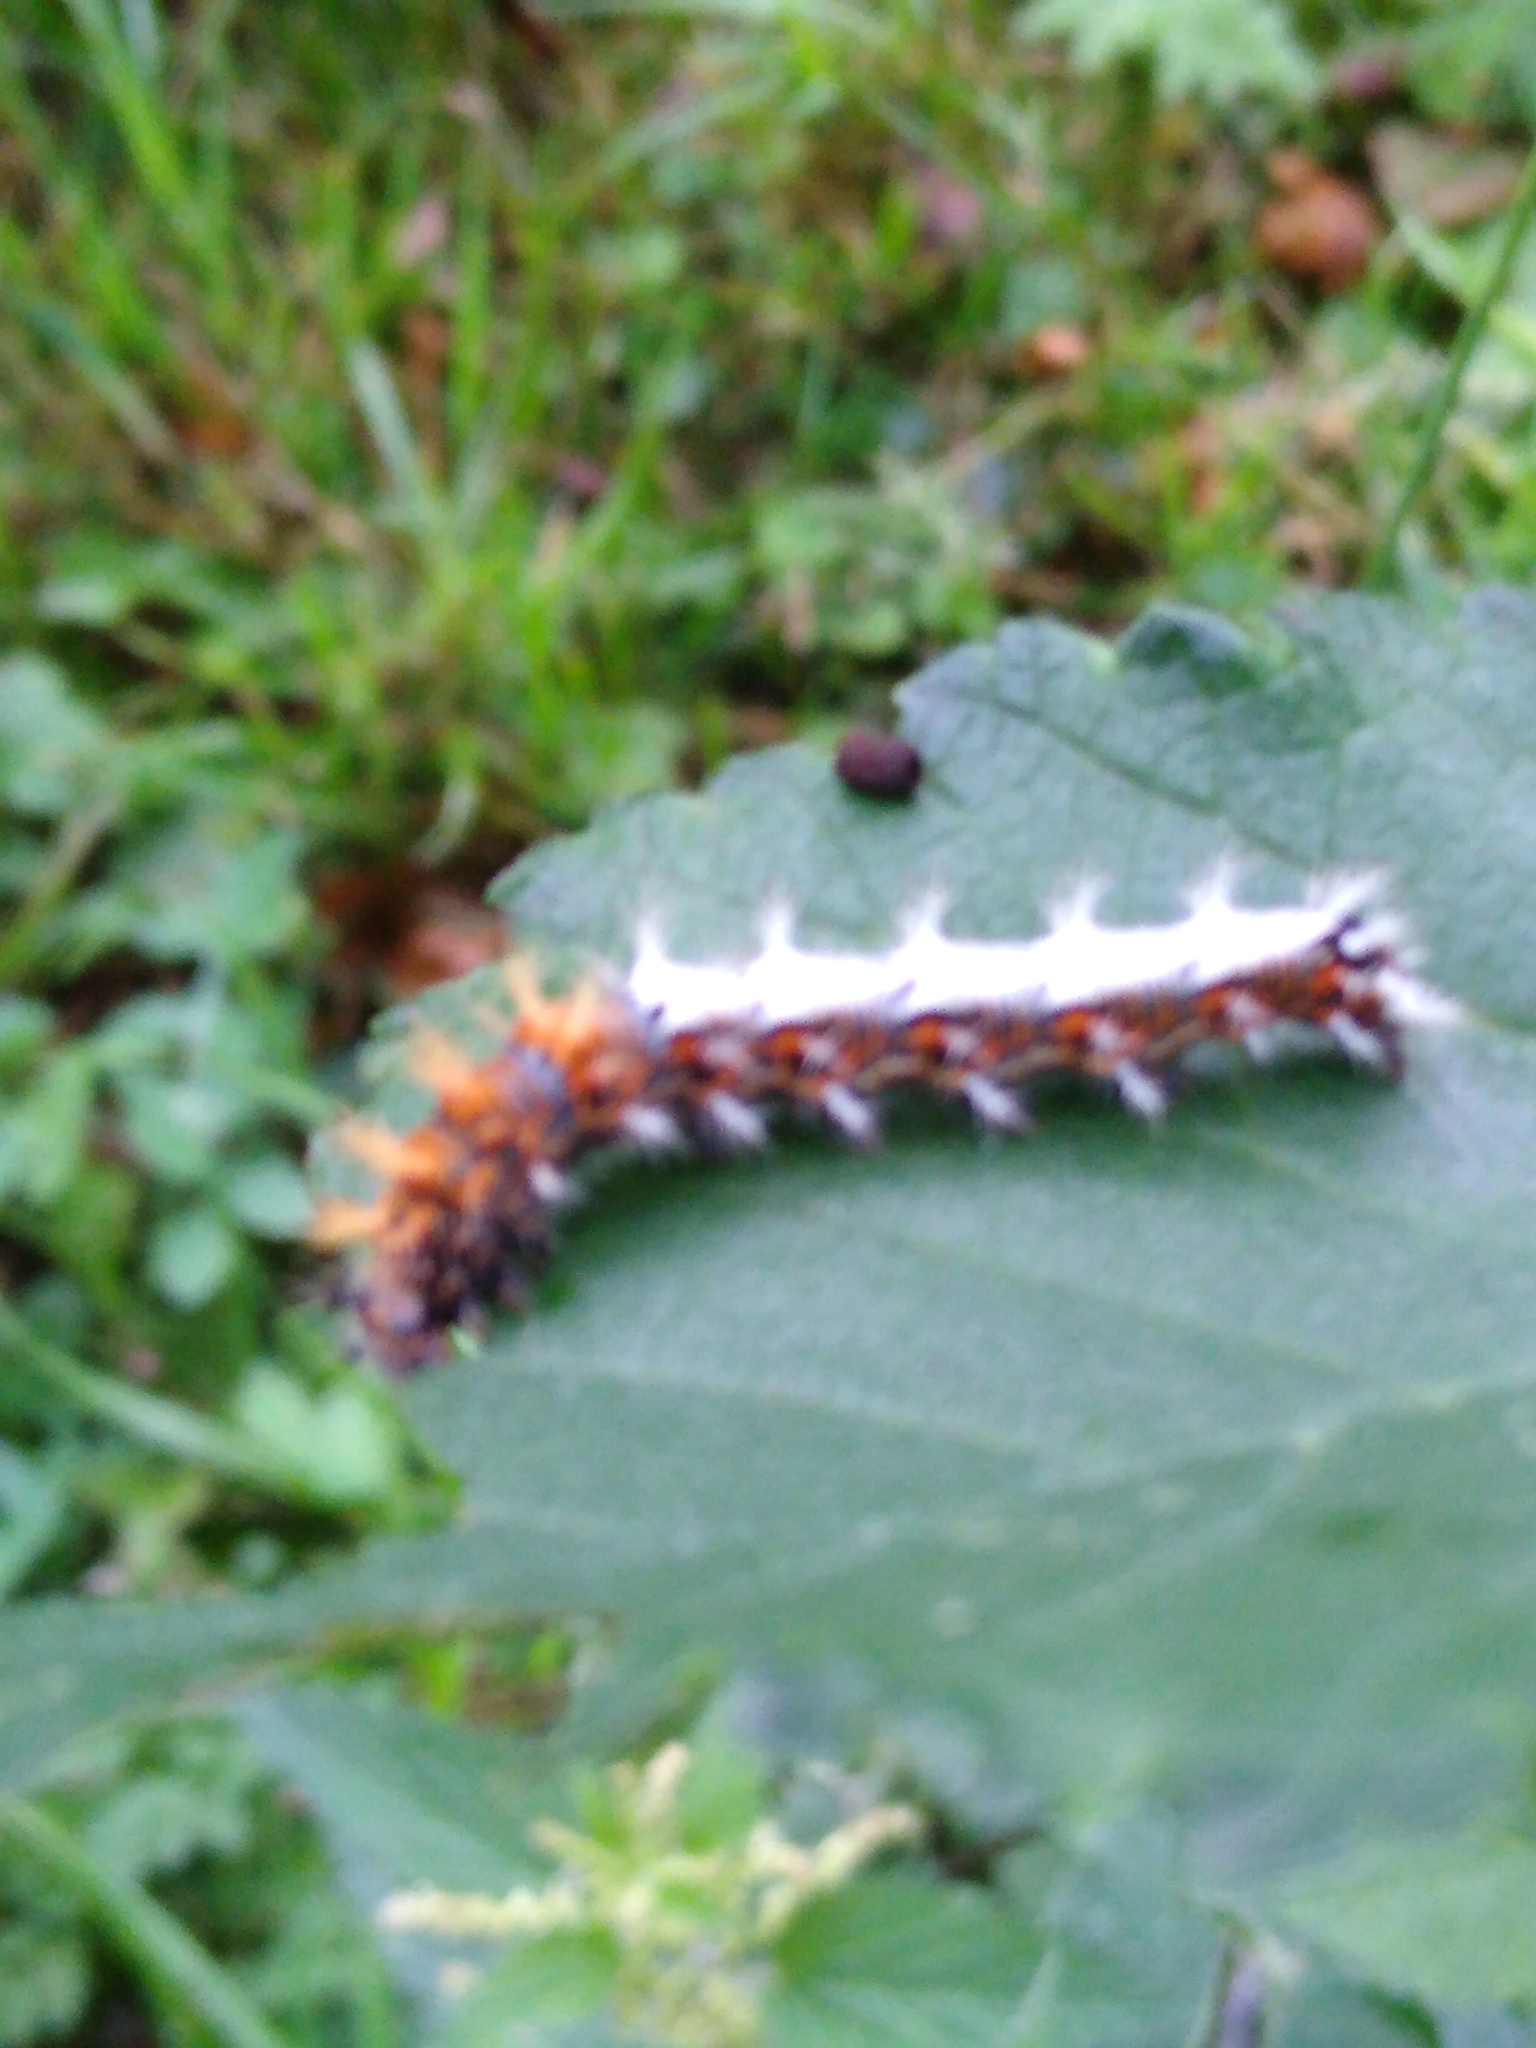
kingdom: Animalia
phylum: Arthropoda
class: Insecta
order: Lepidoptera
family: Nymphalidae
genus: Polygonia
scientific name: Polygonia c-album
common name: Comma
